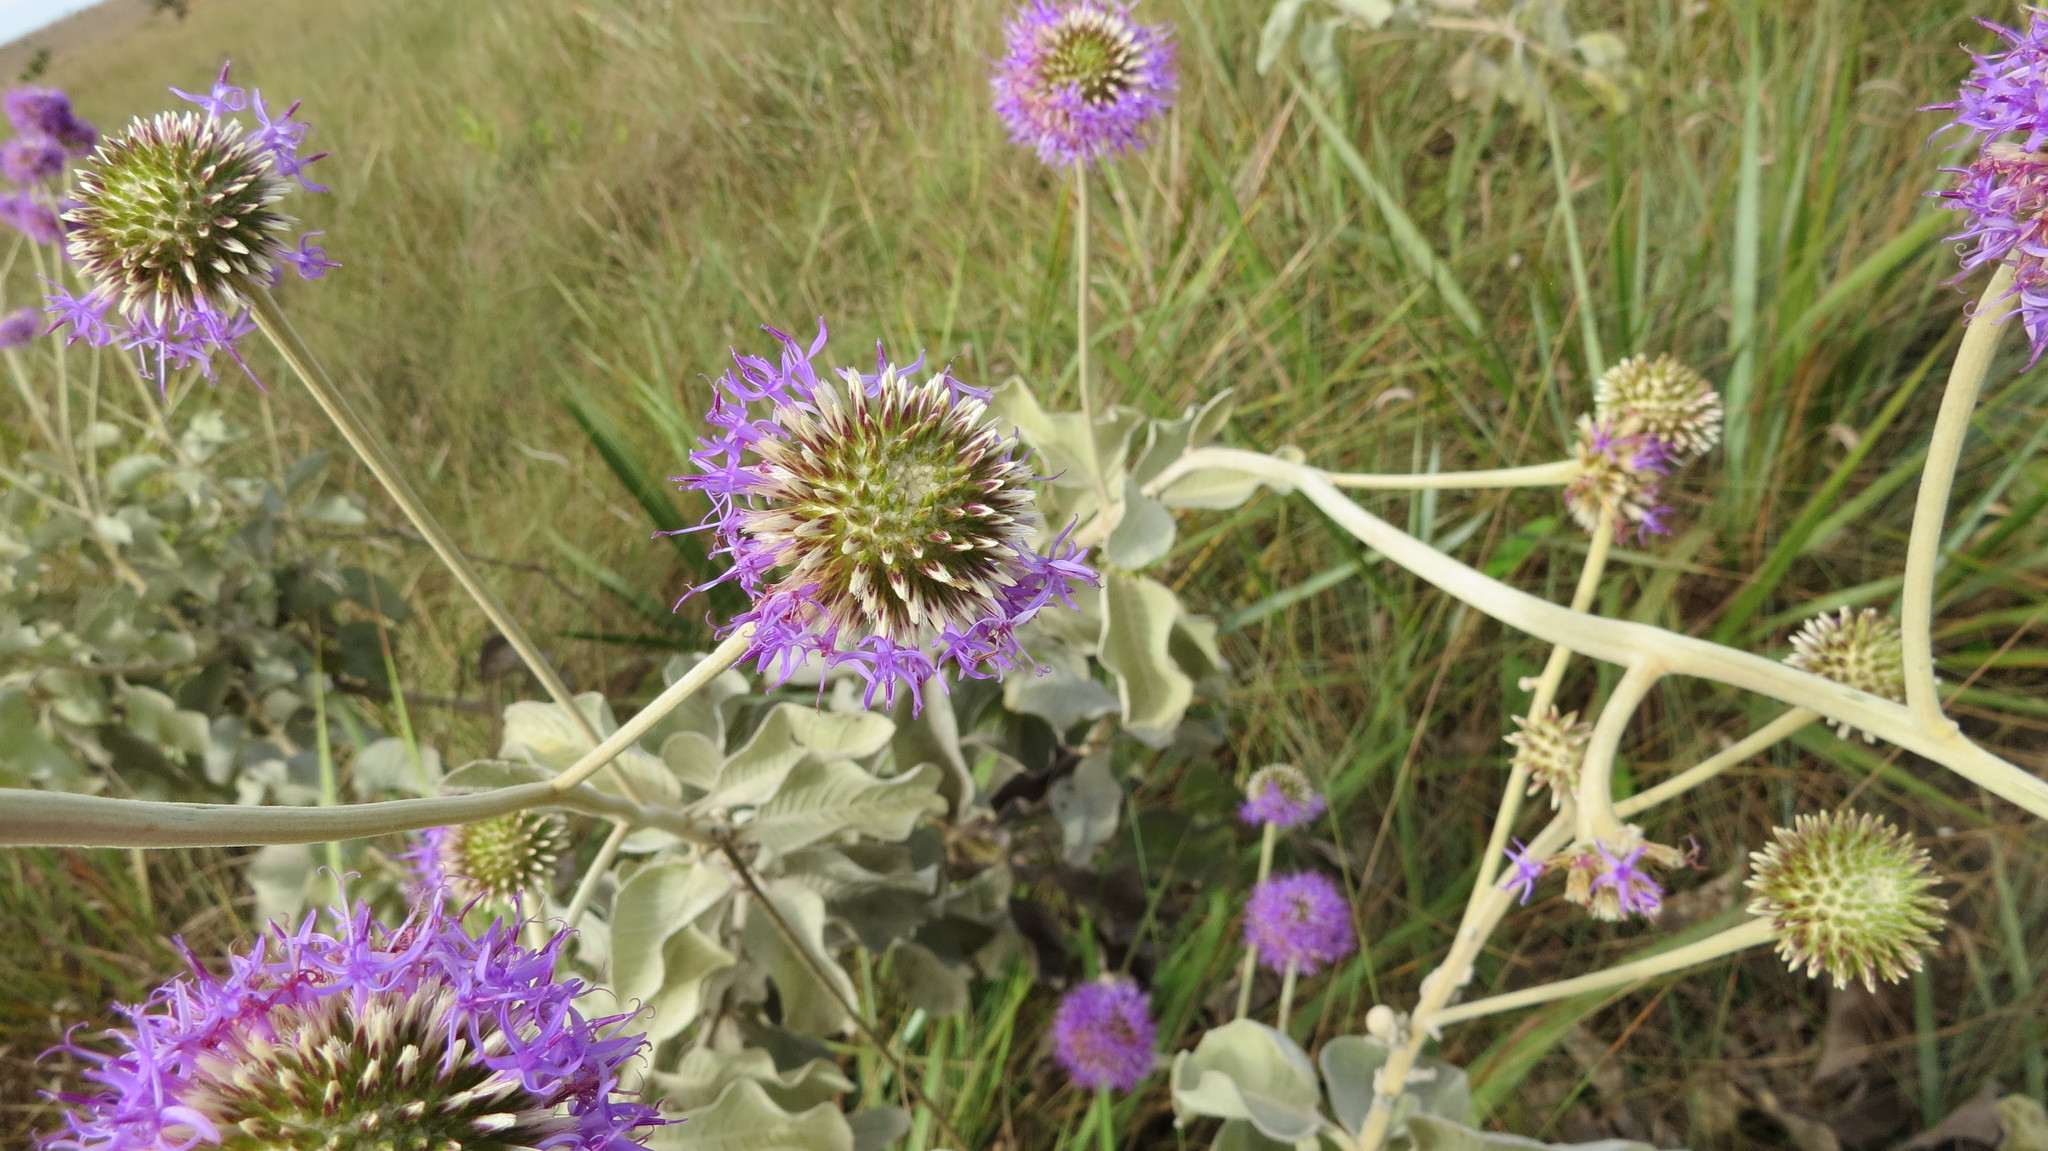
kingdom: Plantae
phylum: Tracheophyta
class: Magnoliopsida
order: Asterales
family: Asteraceae
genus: Chresta
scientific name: Chresta sphaerocephala
